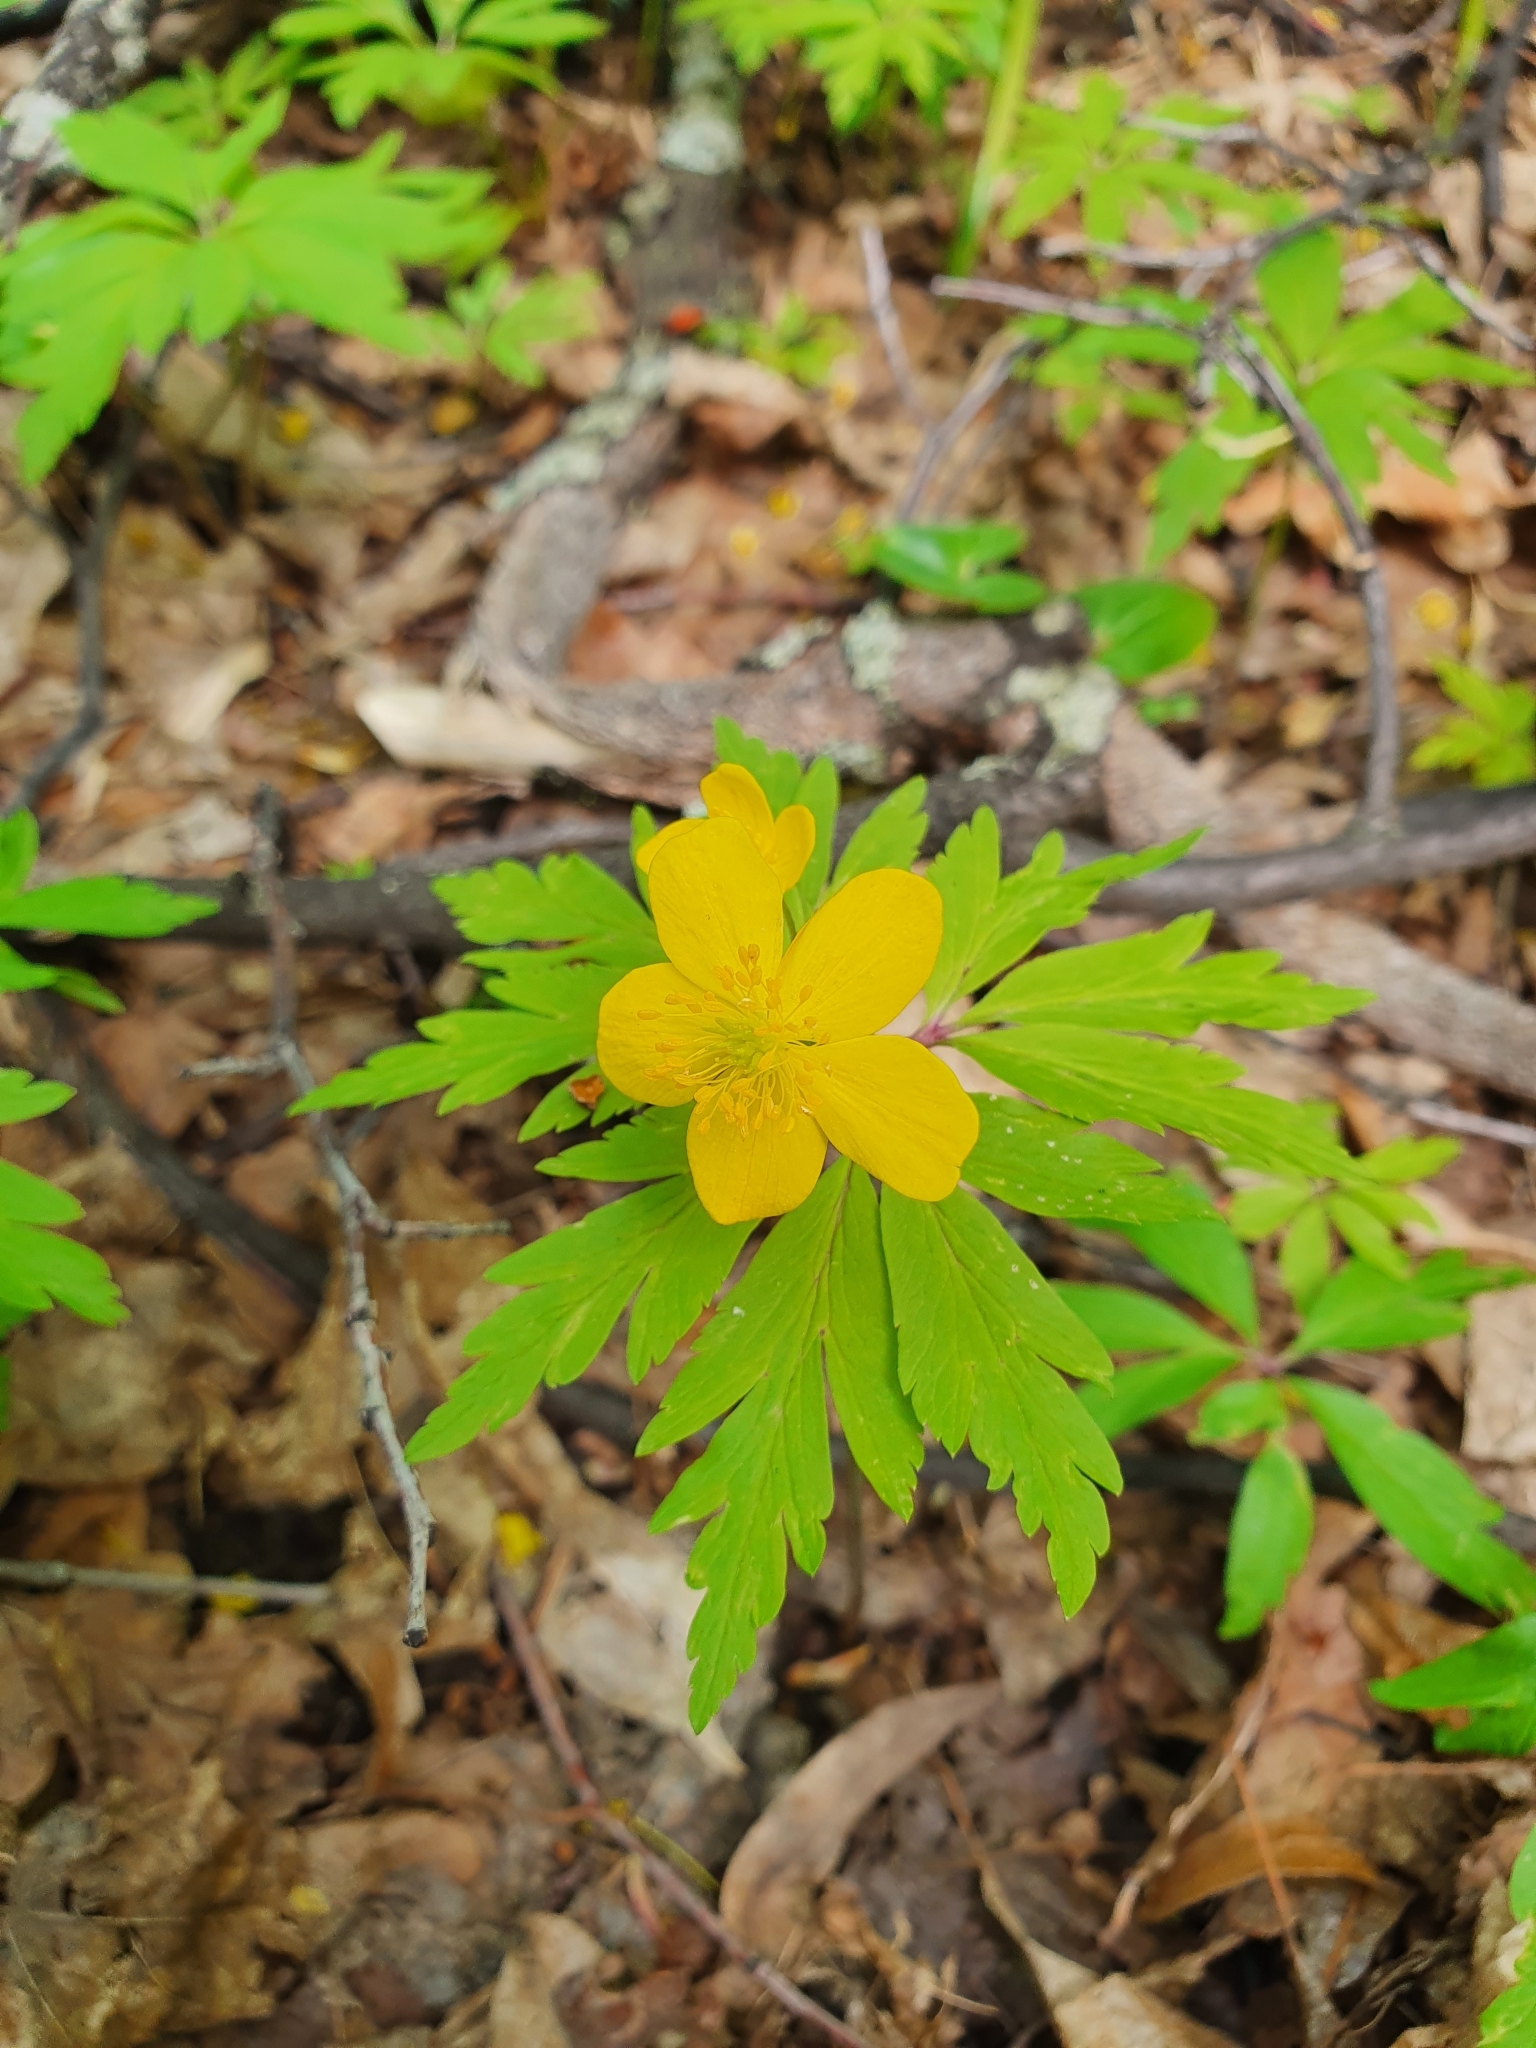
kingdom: Plantae
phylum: Tracheophyta
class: Magnoliopsida
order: Ranunculales
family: Ranunculaceae
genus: Anemone
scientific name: Anemone ranunculoides
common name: Yellow anemone
